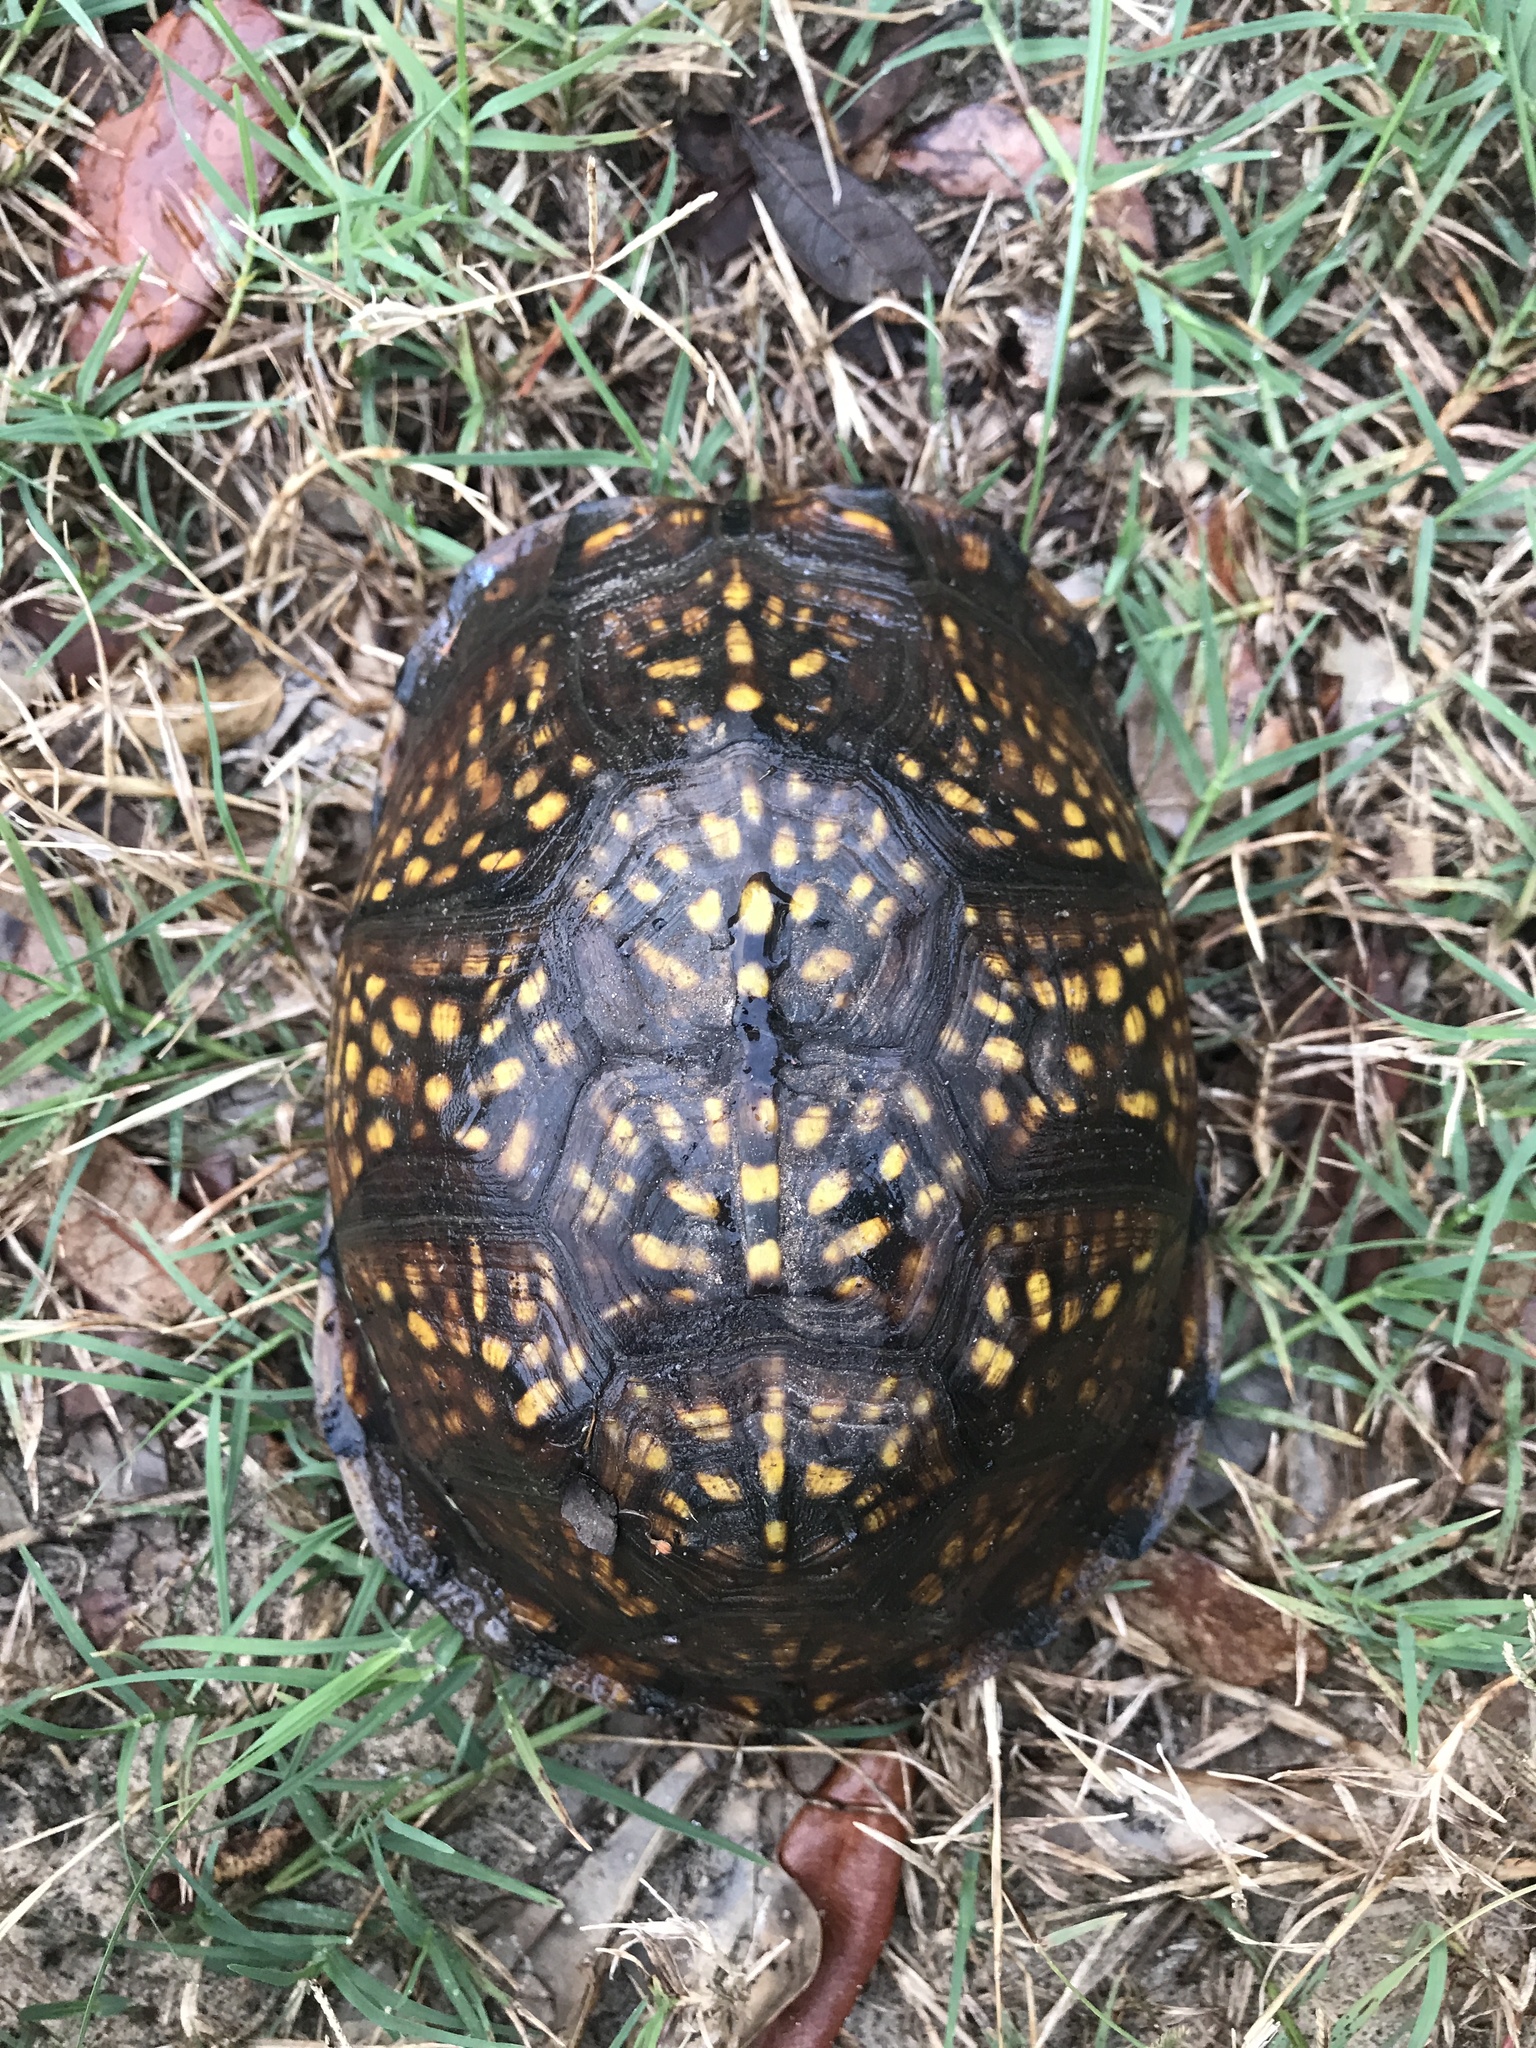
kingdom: Animalia
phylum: Chordata
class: Testudines
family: Emydidae
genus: Terrapene
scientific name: Terrapene carolina
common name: Common box turtle
